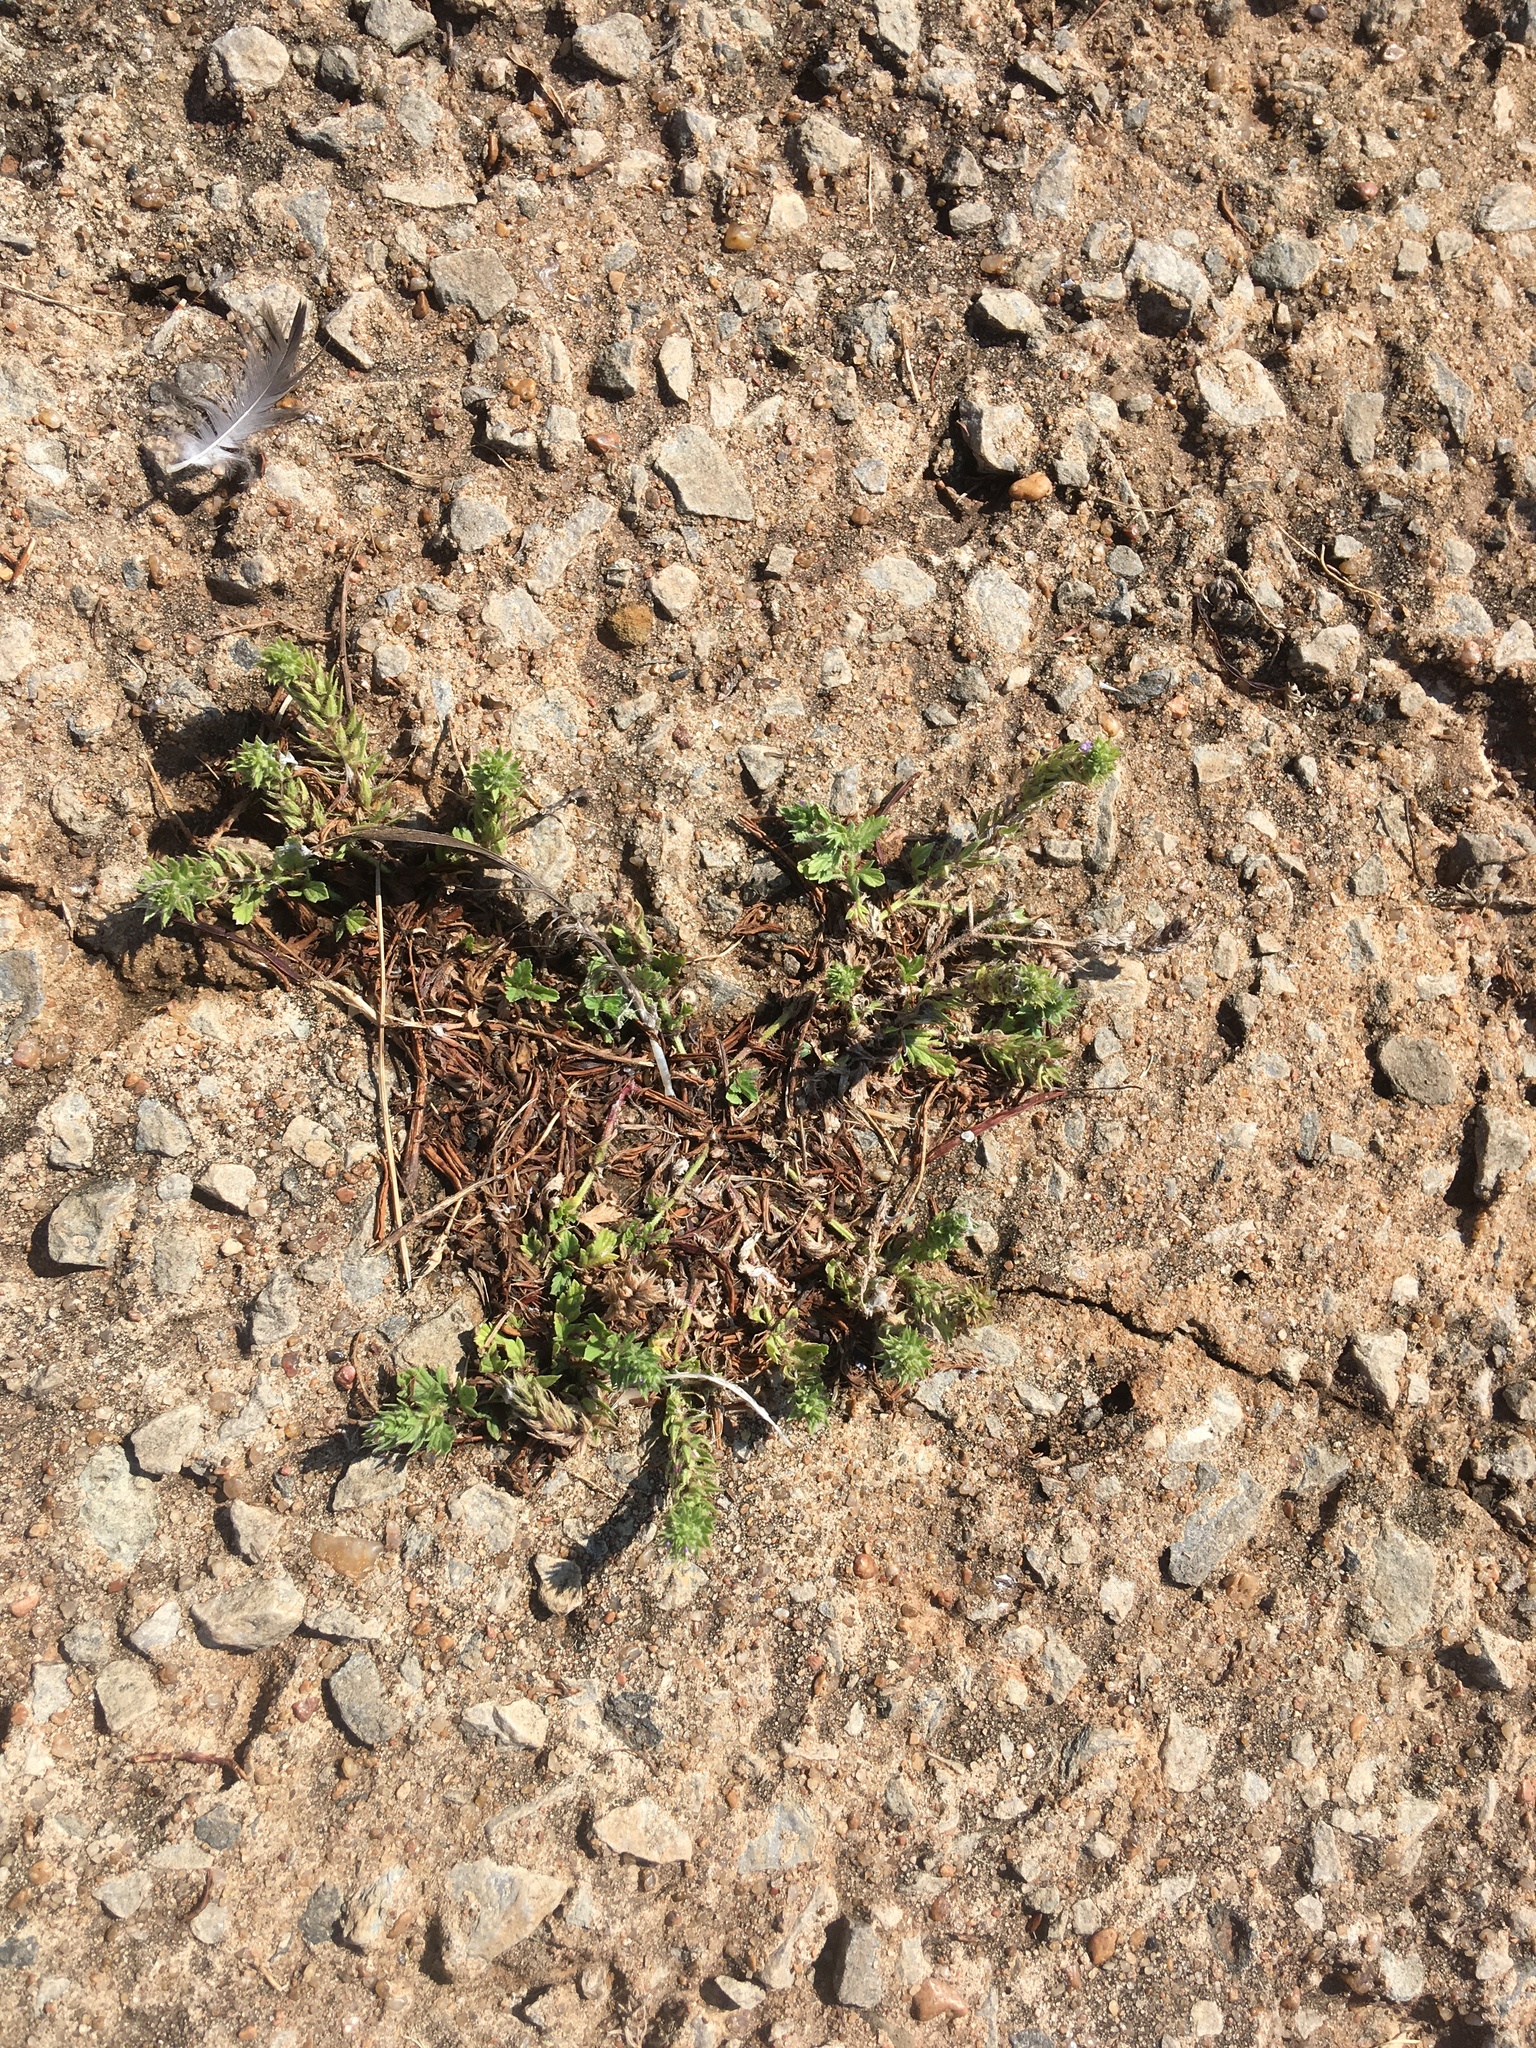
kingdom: Plantae
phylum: Tracheophyta
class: Magnoliopsida
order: Lamiales
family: Verbenaceae
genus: Verbena
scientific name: Verbena bracteata
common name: Bracted vervain
